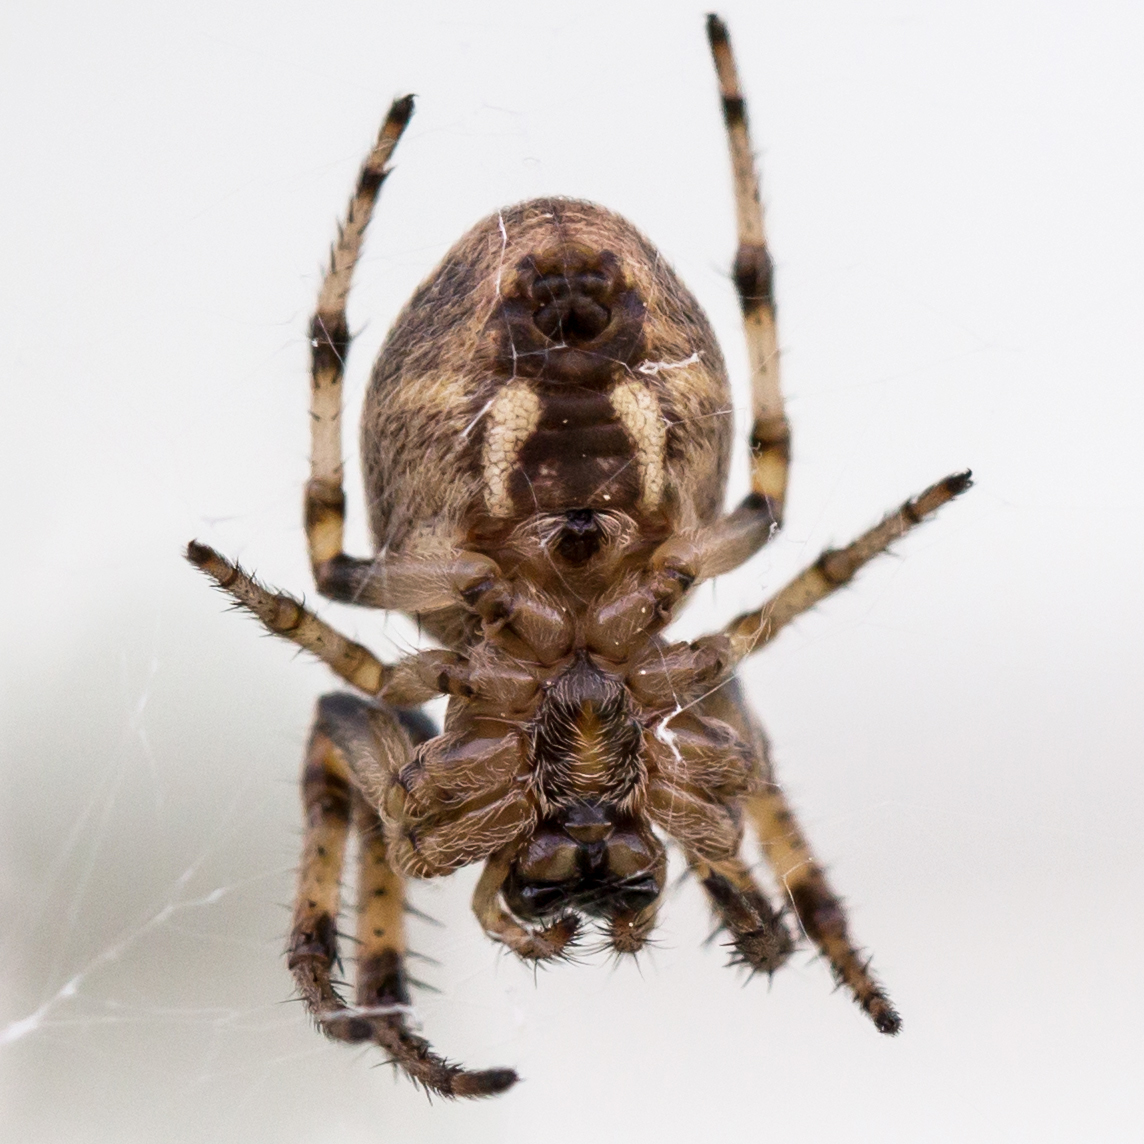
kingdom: Animalia
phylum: Arthropoda
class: Arachnida
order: Araneae
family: Araneidae
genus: Larinioides
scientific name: Larinioides cornutus
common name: Furrow orbweaver
